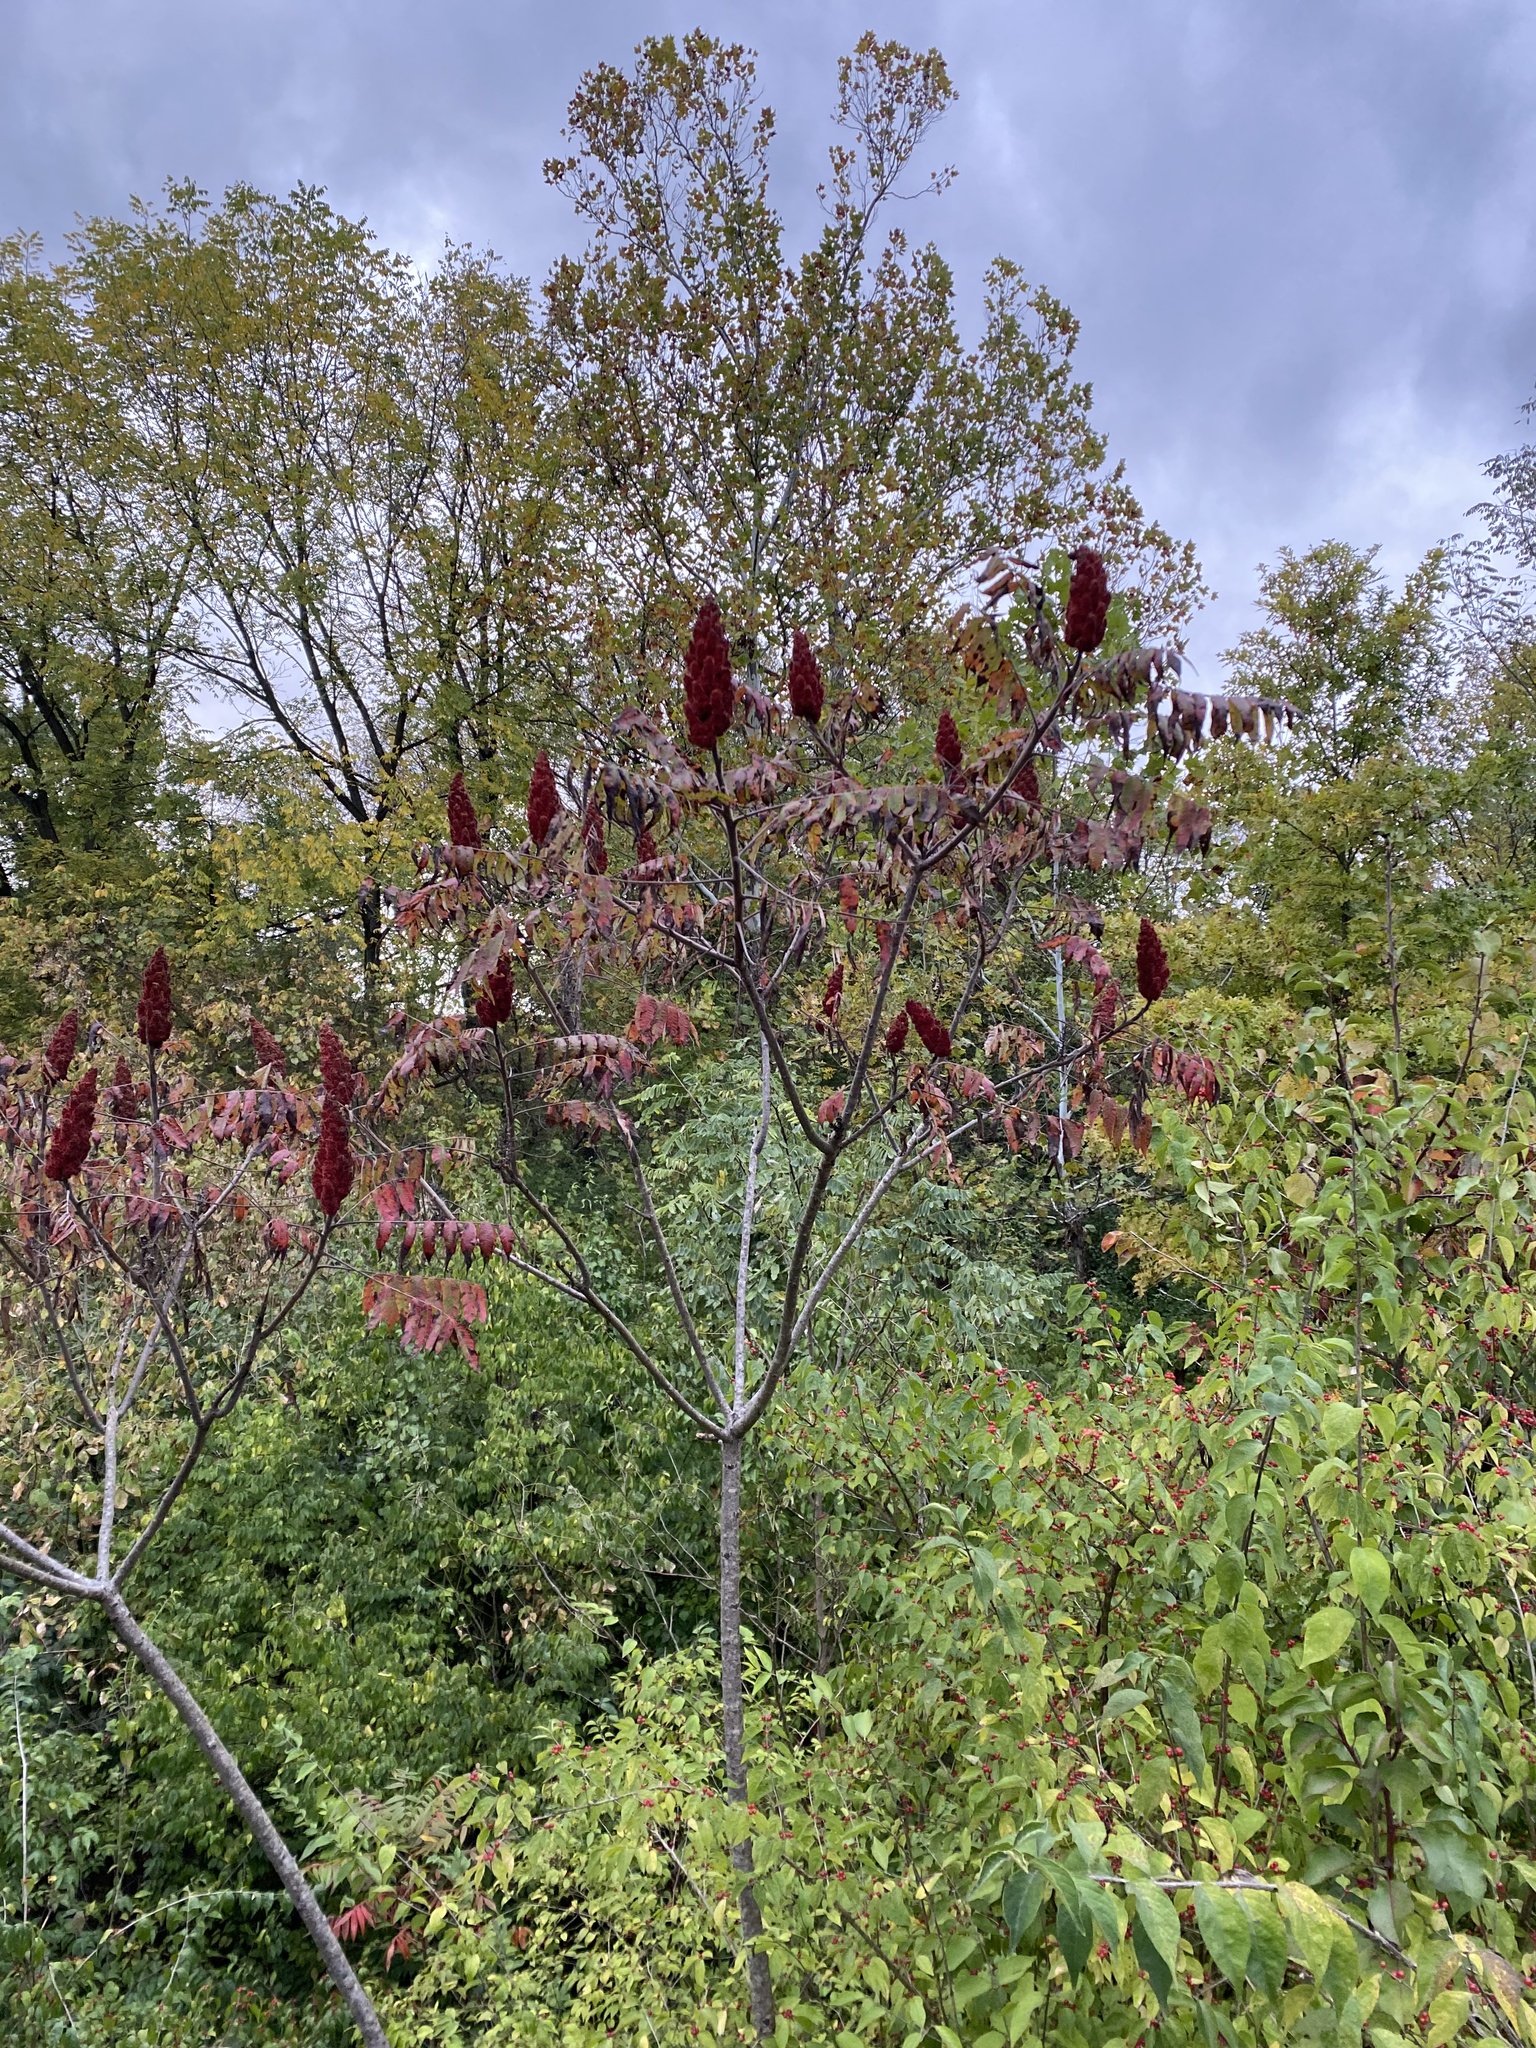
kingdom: Plantae
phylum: Tracheophyta
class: Magnoliopsida
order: Sapindales
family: Anacardiaceae
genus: Rhus
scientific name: Rhus typhina
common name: Staghorn sumac
